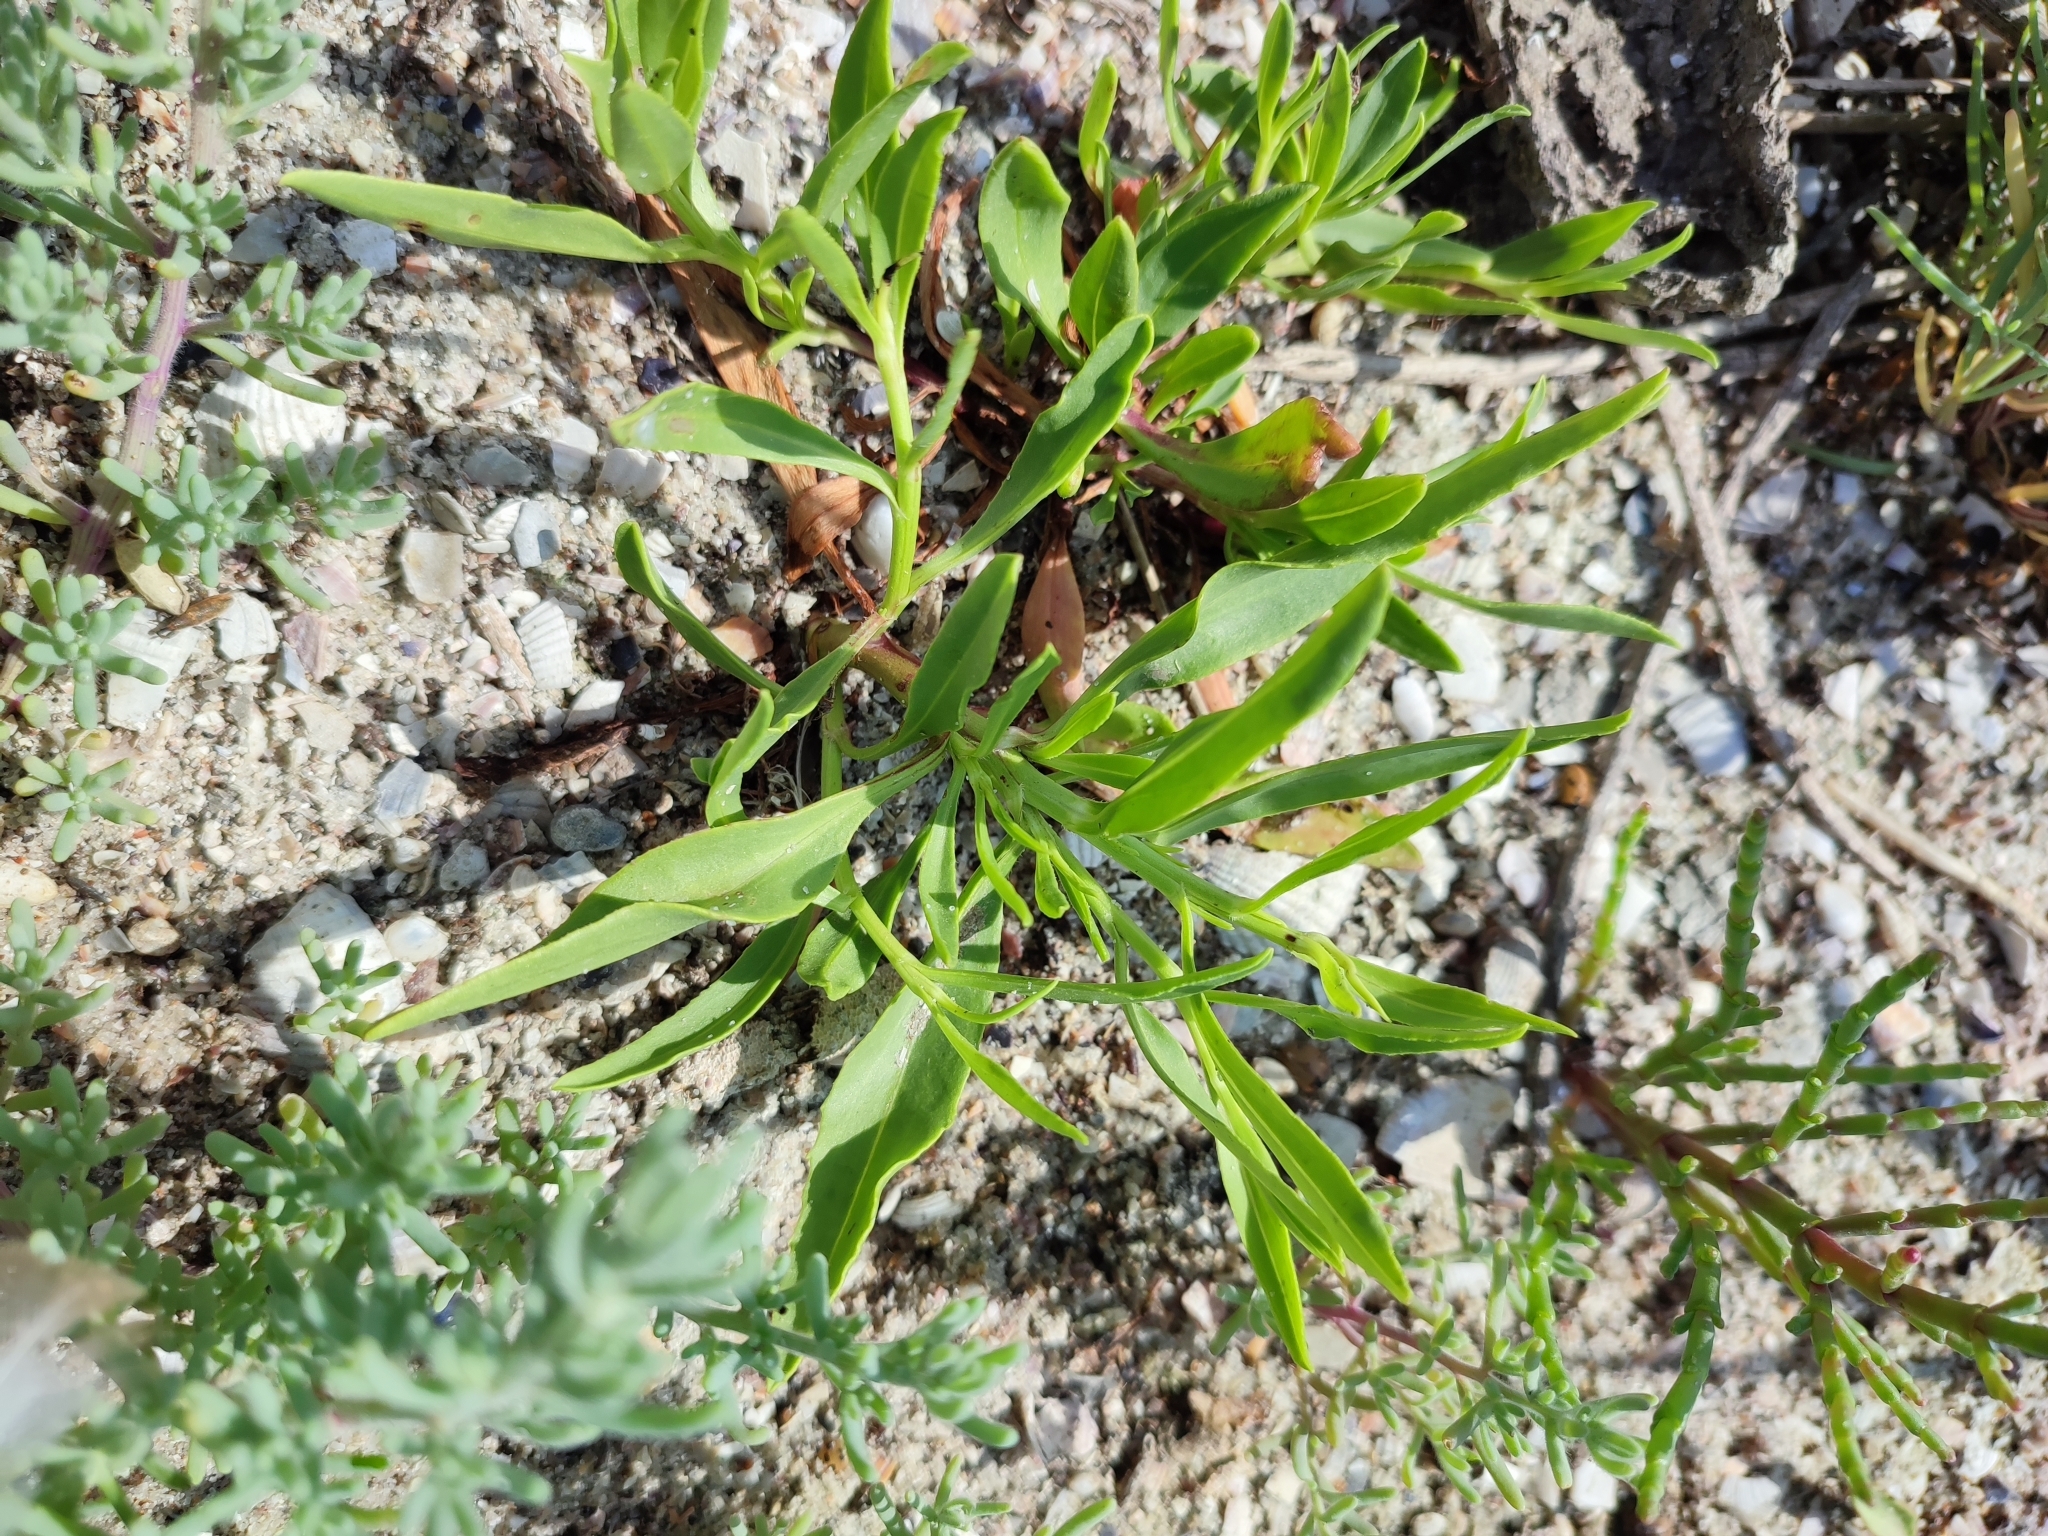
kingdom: Plantae
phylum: Tracheophyta
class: Magnoliopsida
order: Asterales
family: Asteraceae
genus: Tripolium
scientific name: Tripolium pannonicum
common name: Sea aster
